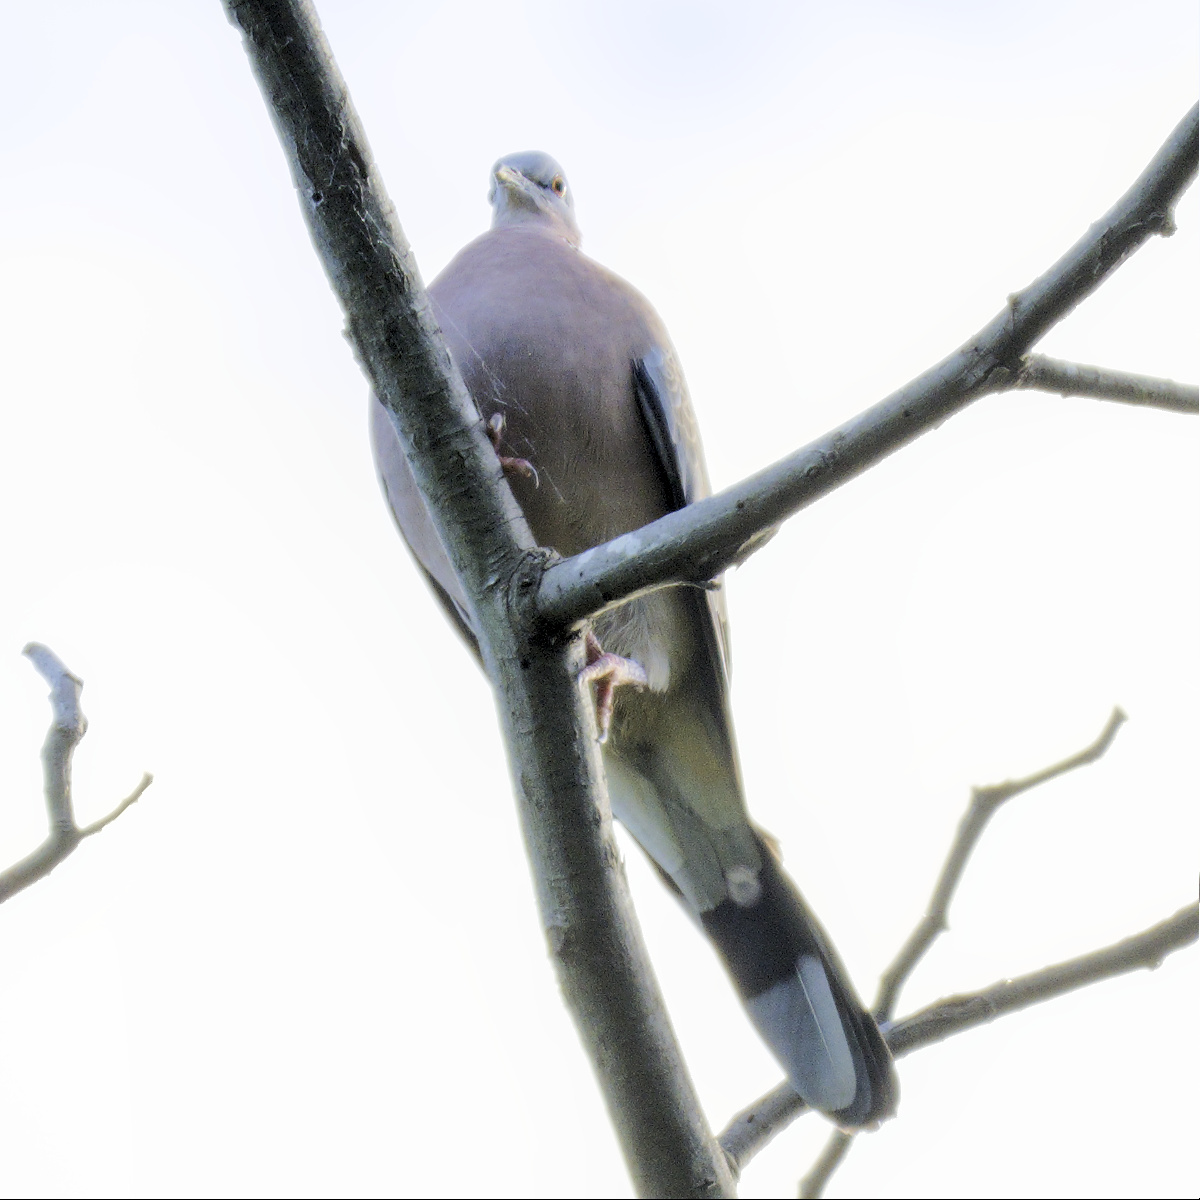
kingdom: Animalia
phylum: Chordata
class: Aves
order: Columbiformes
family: Columbidae
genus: Spilopelia
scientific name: Spilopelia chinensis
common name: Spotted dove
